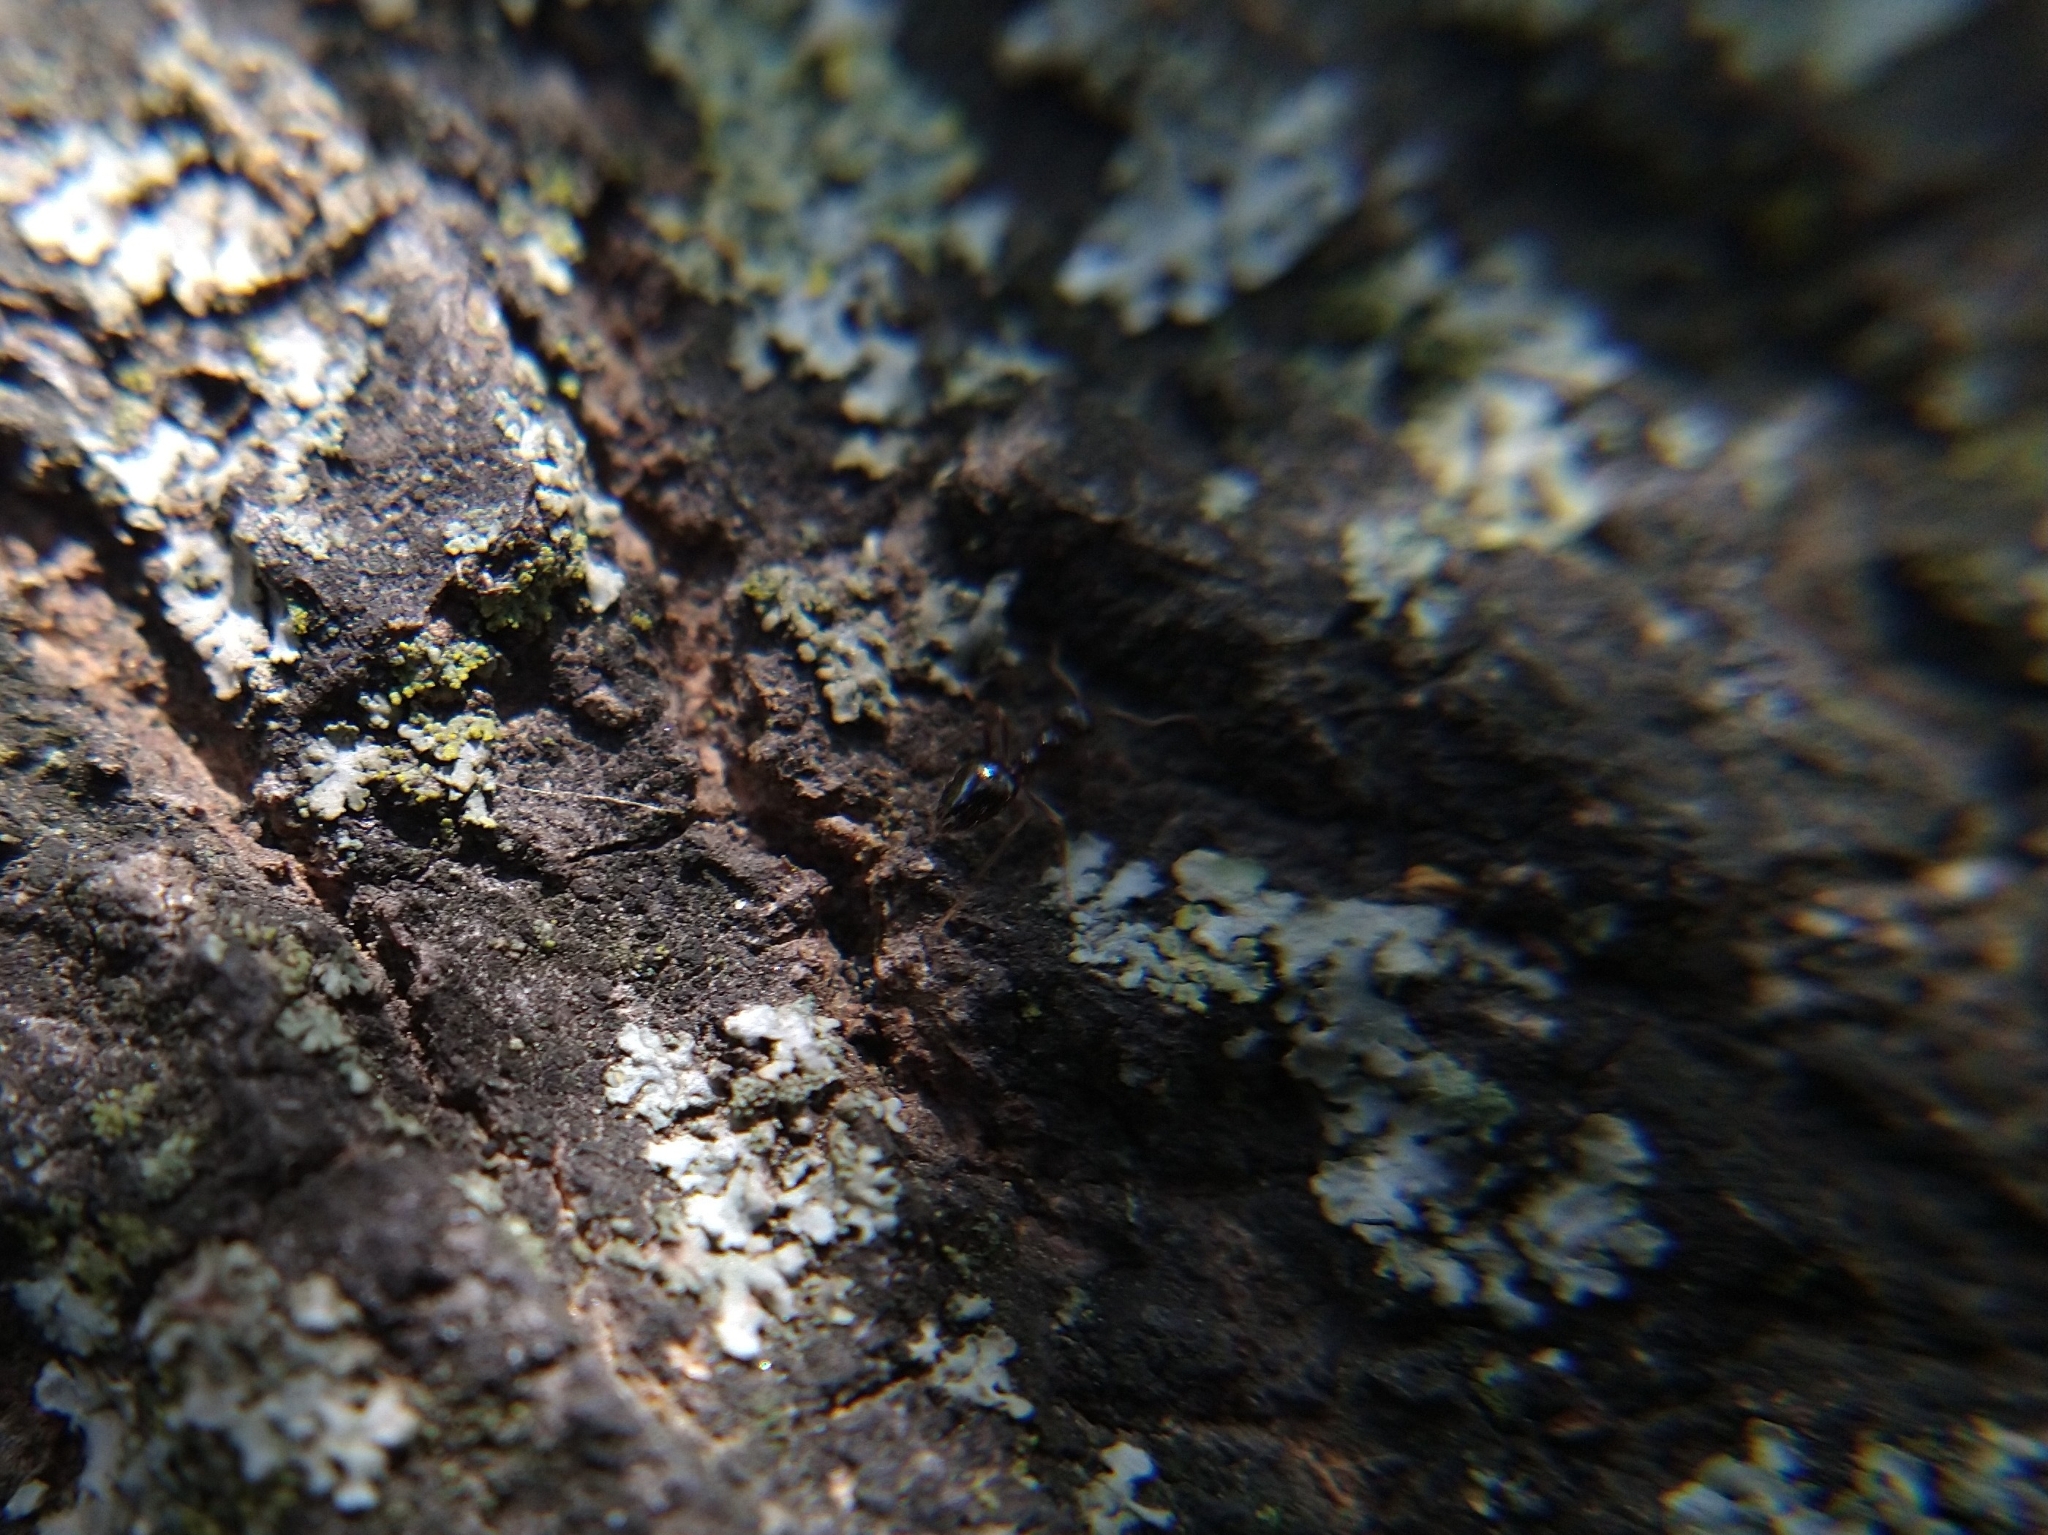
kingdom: Animalia
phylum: Arthropoda
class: Insecta
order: Hymenoptera
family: Formicidae
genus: Prenolepis
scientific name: Prenolepis imparis
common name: Small honey ant
